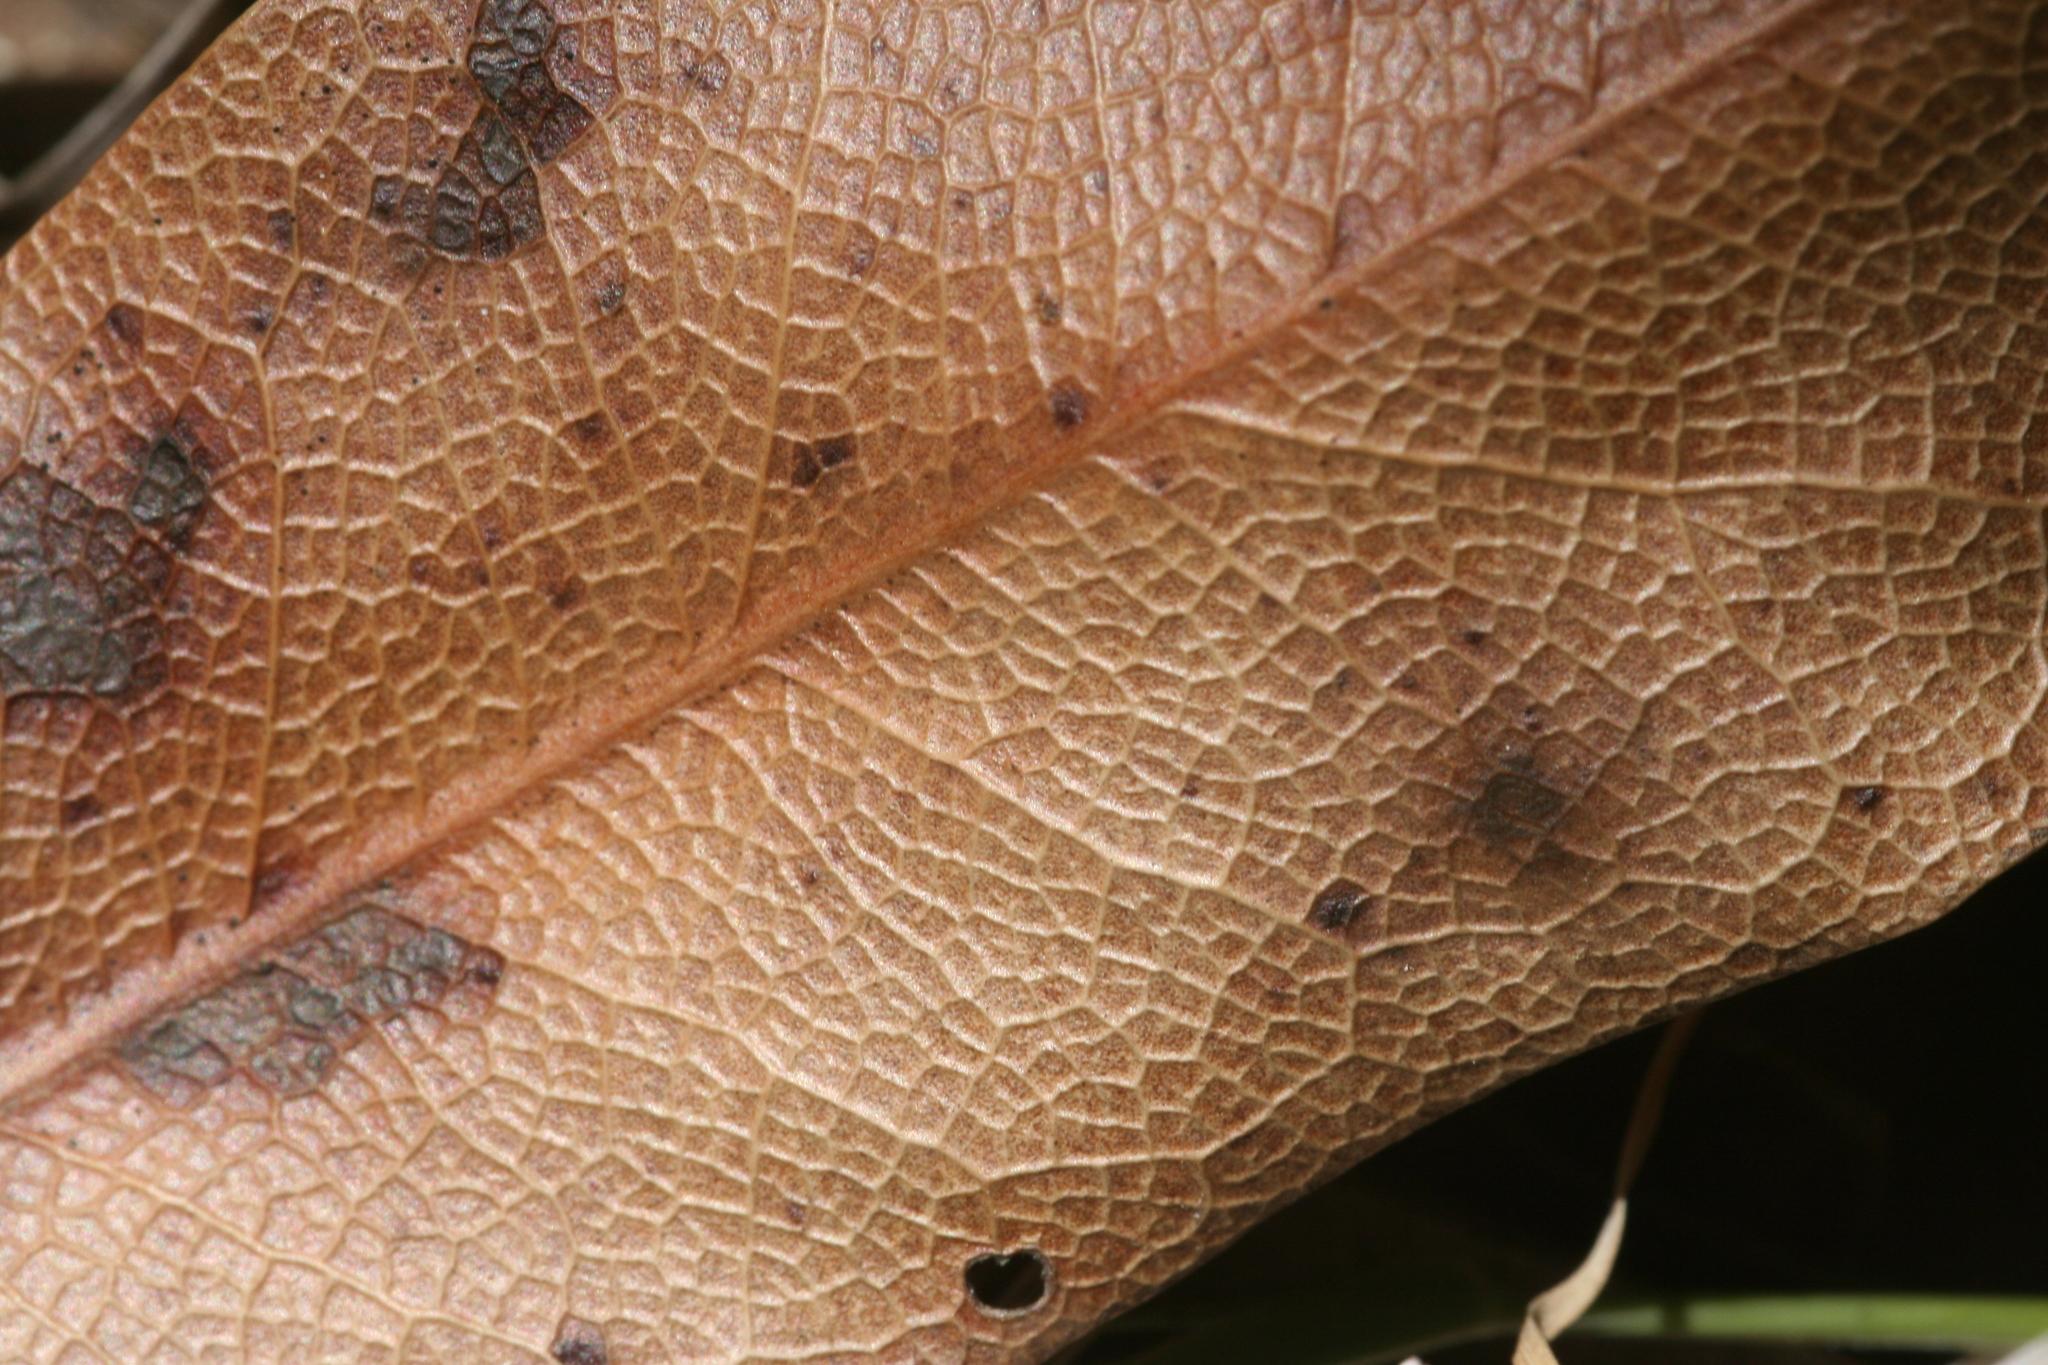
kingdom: Plantae
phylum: Tracheophyta
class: Magnoliopsida
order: Laurales
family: Lauraceae
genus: Umbellularia
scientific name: Umbellularia californica
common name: California bay
